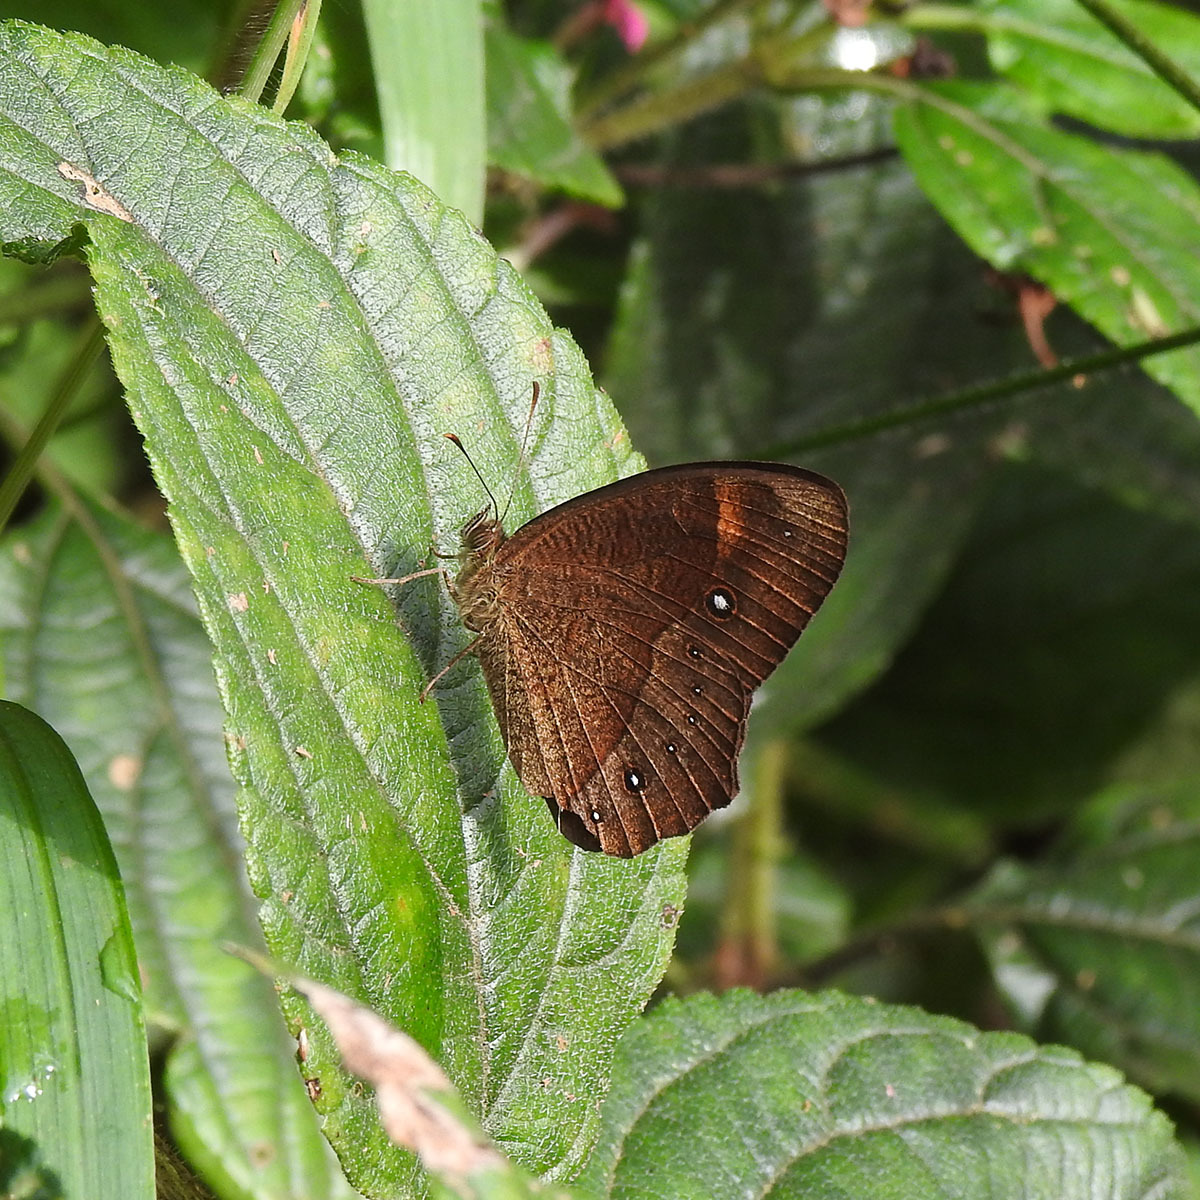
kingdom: Animalia
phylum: Arthropoda
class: Insecta
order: Lepidoptera
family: Nymphalidae
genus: Mycalesis
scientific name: Mycalesis Telinga oculus
